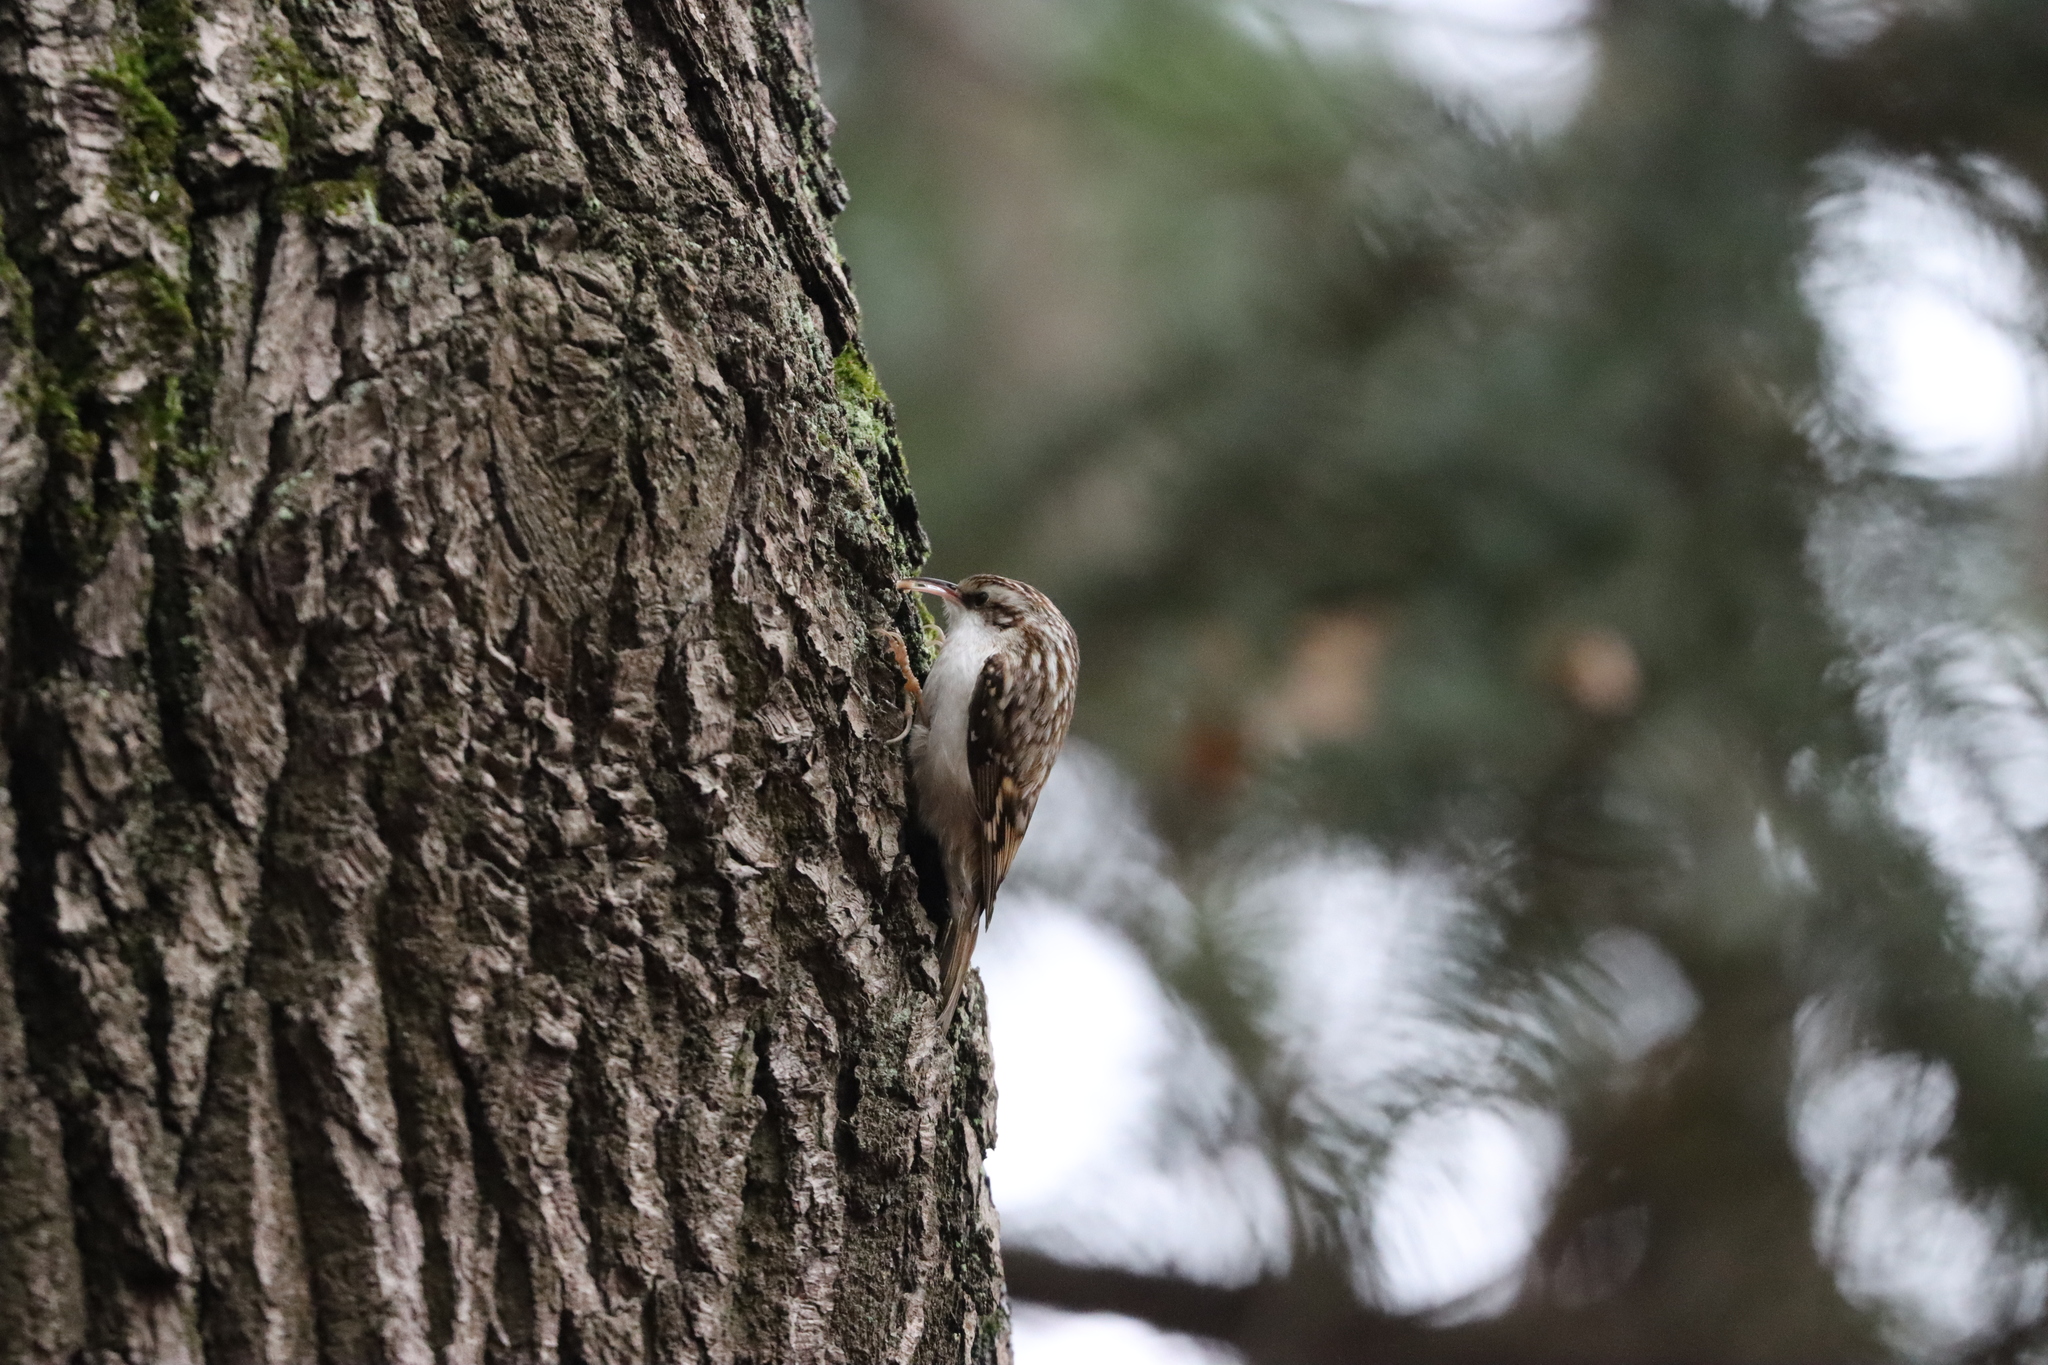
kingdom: Animalia
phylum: Chordata
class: Aves
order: Passeriformes
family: Certhiidae
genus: Certhia
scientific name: Certhia familiaris
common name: Eurasian treecreeper
